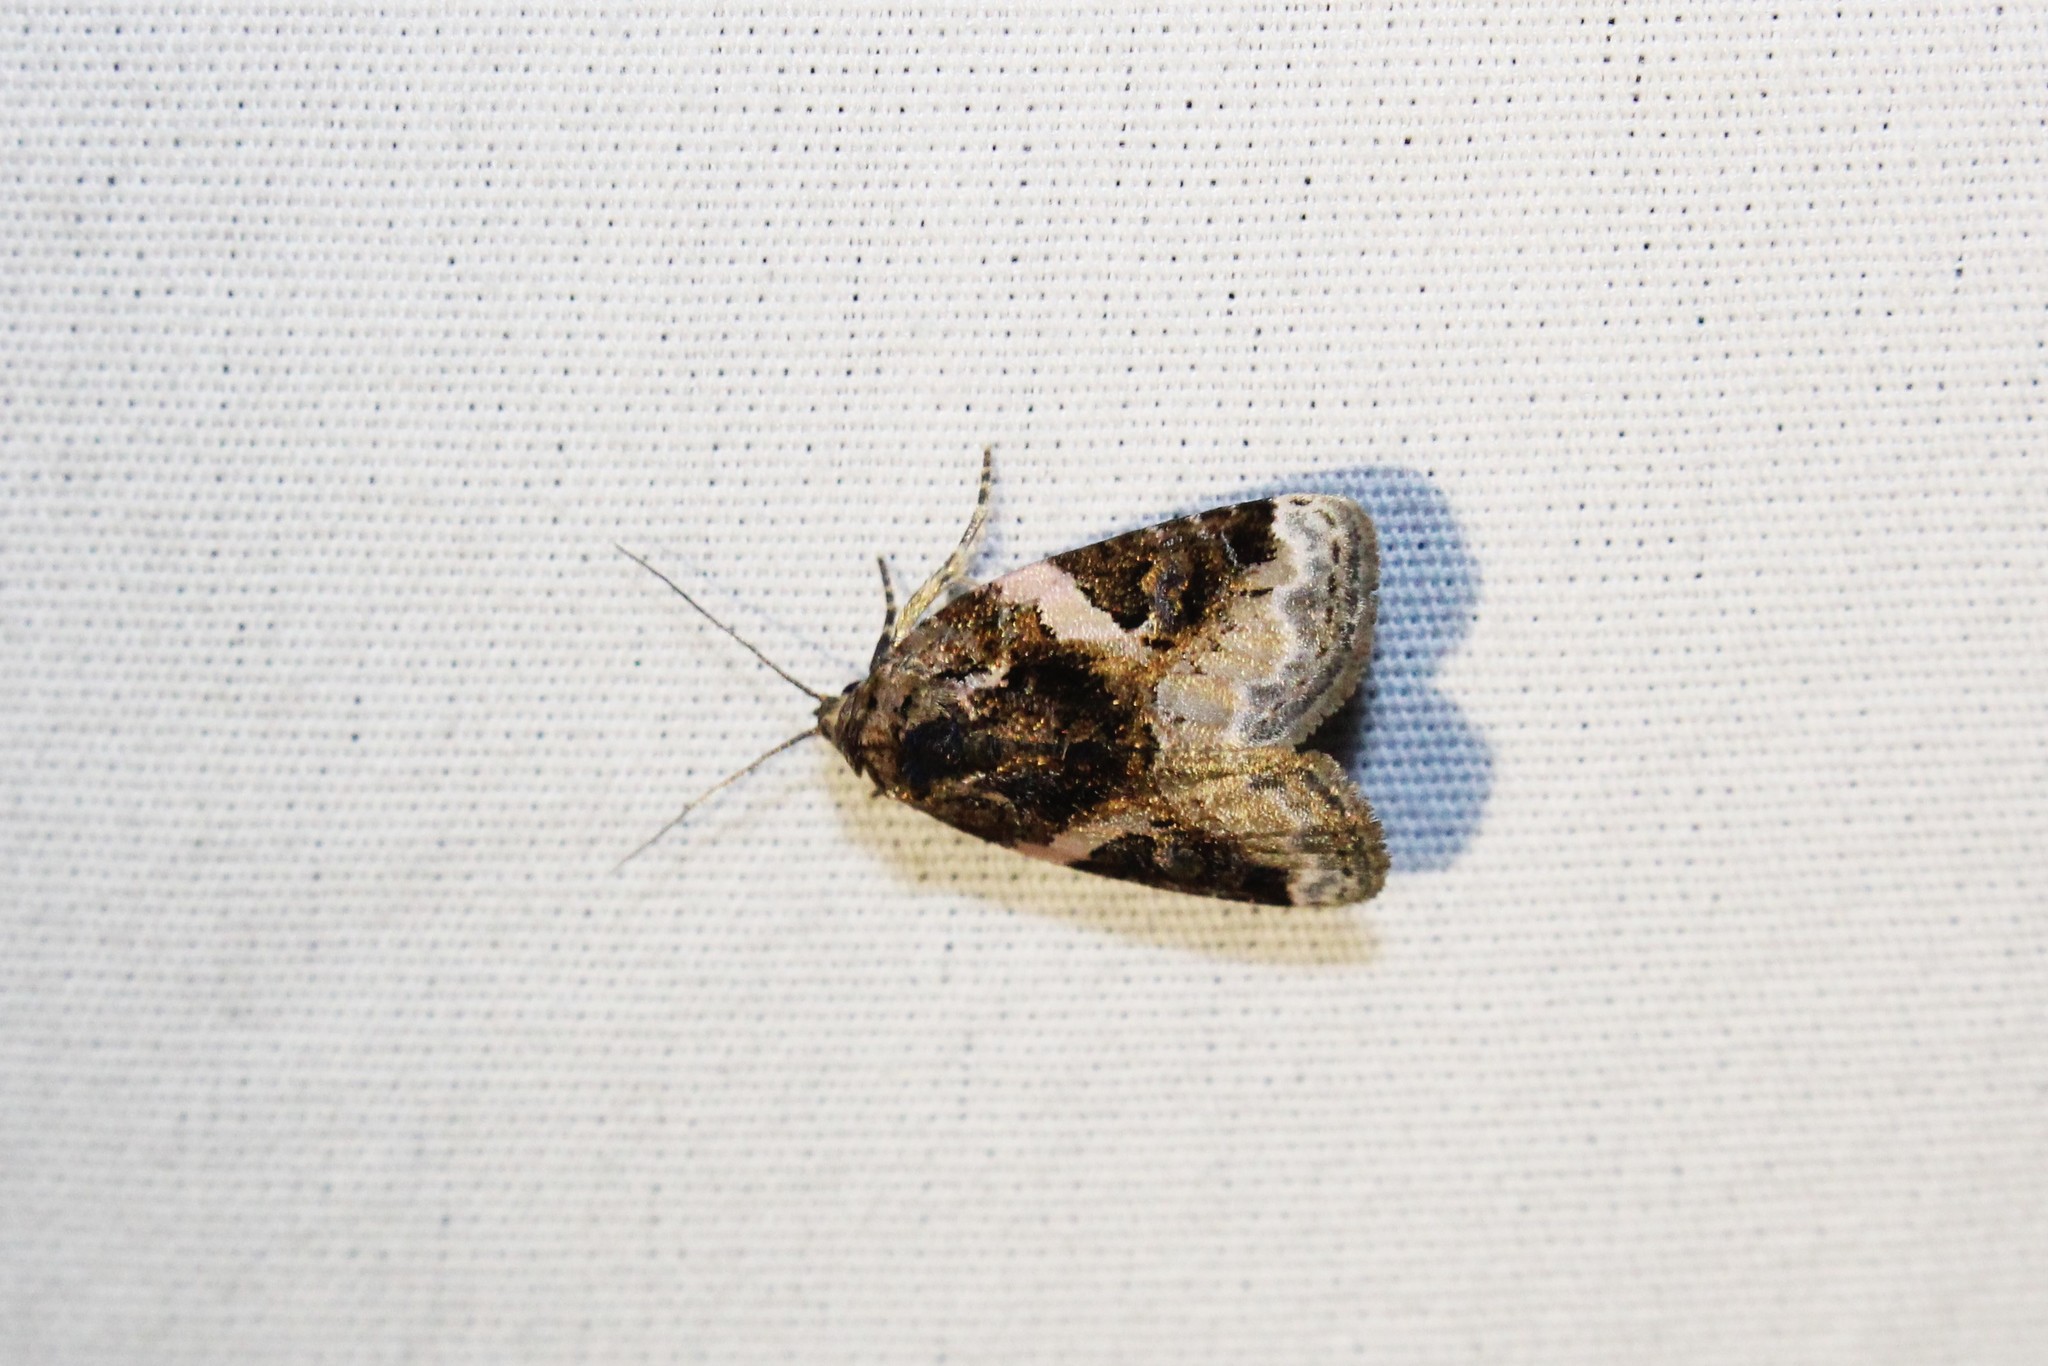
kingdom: Animalia
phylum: Arthropoda
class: Insecta
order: Lepidoptera
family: Noctuidae
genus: Pseudeustrotia
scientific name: Pseudeustrotia carneola
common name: Pink-barred lithacodia moth
